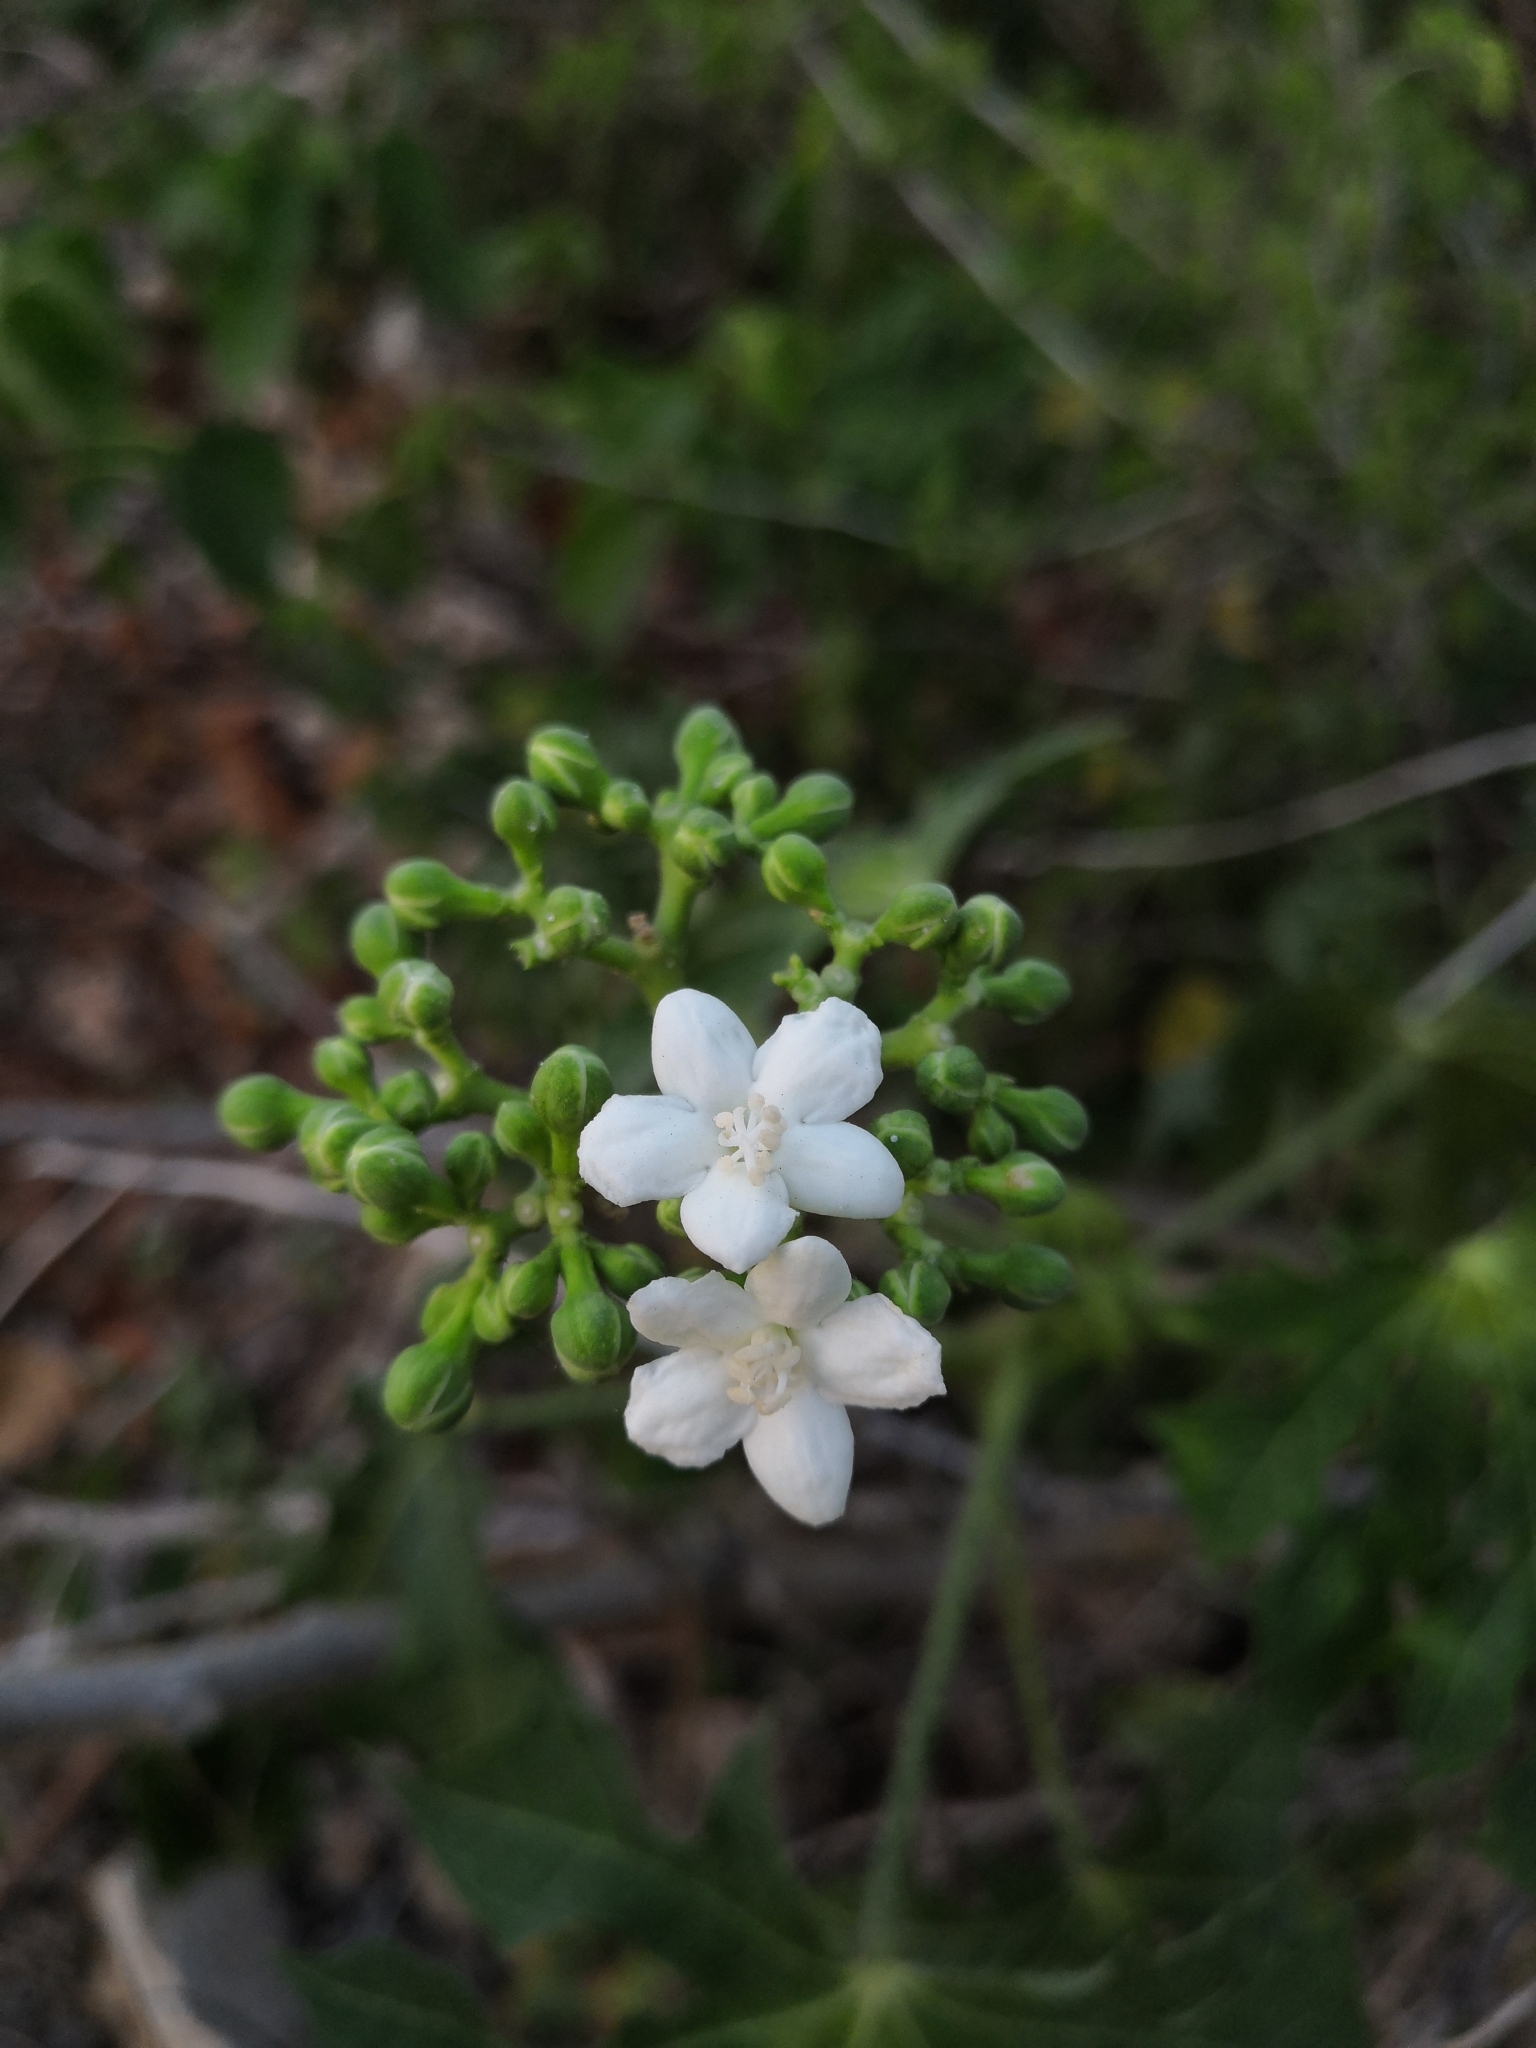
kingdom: Plantae
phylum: Tracheophyta
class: Magnoliopsida
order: Malpighiales
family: Euphorbiaceae
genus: Cnidoscolus
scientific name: Cnidoscolus aconitifolius
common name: Cabbage-star
